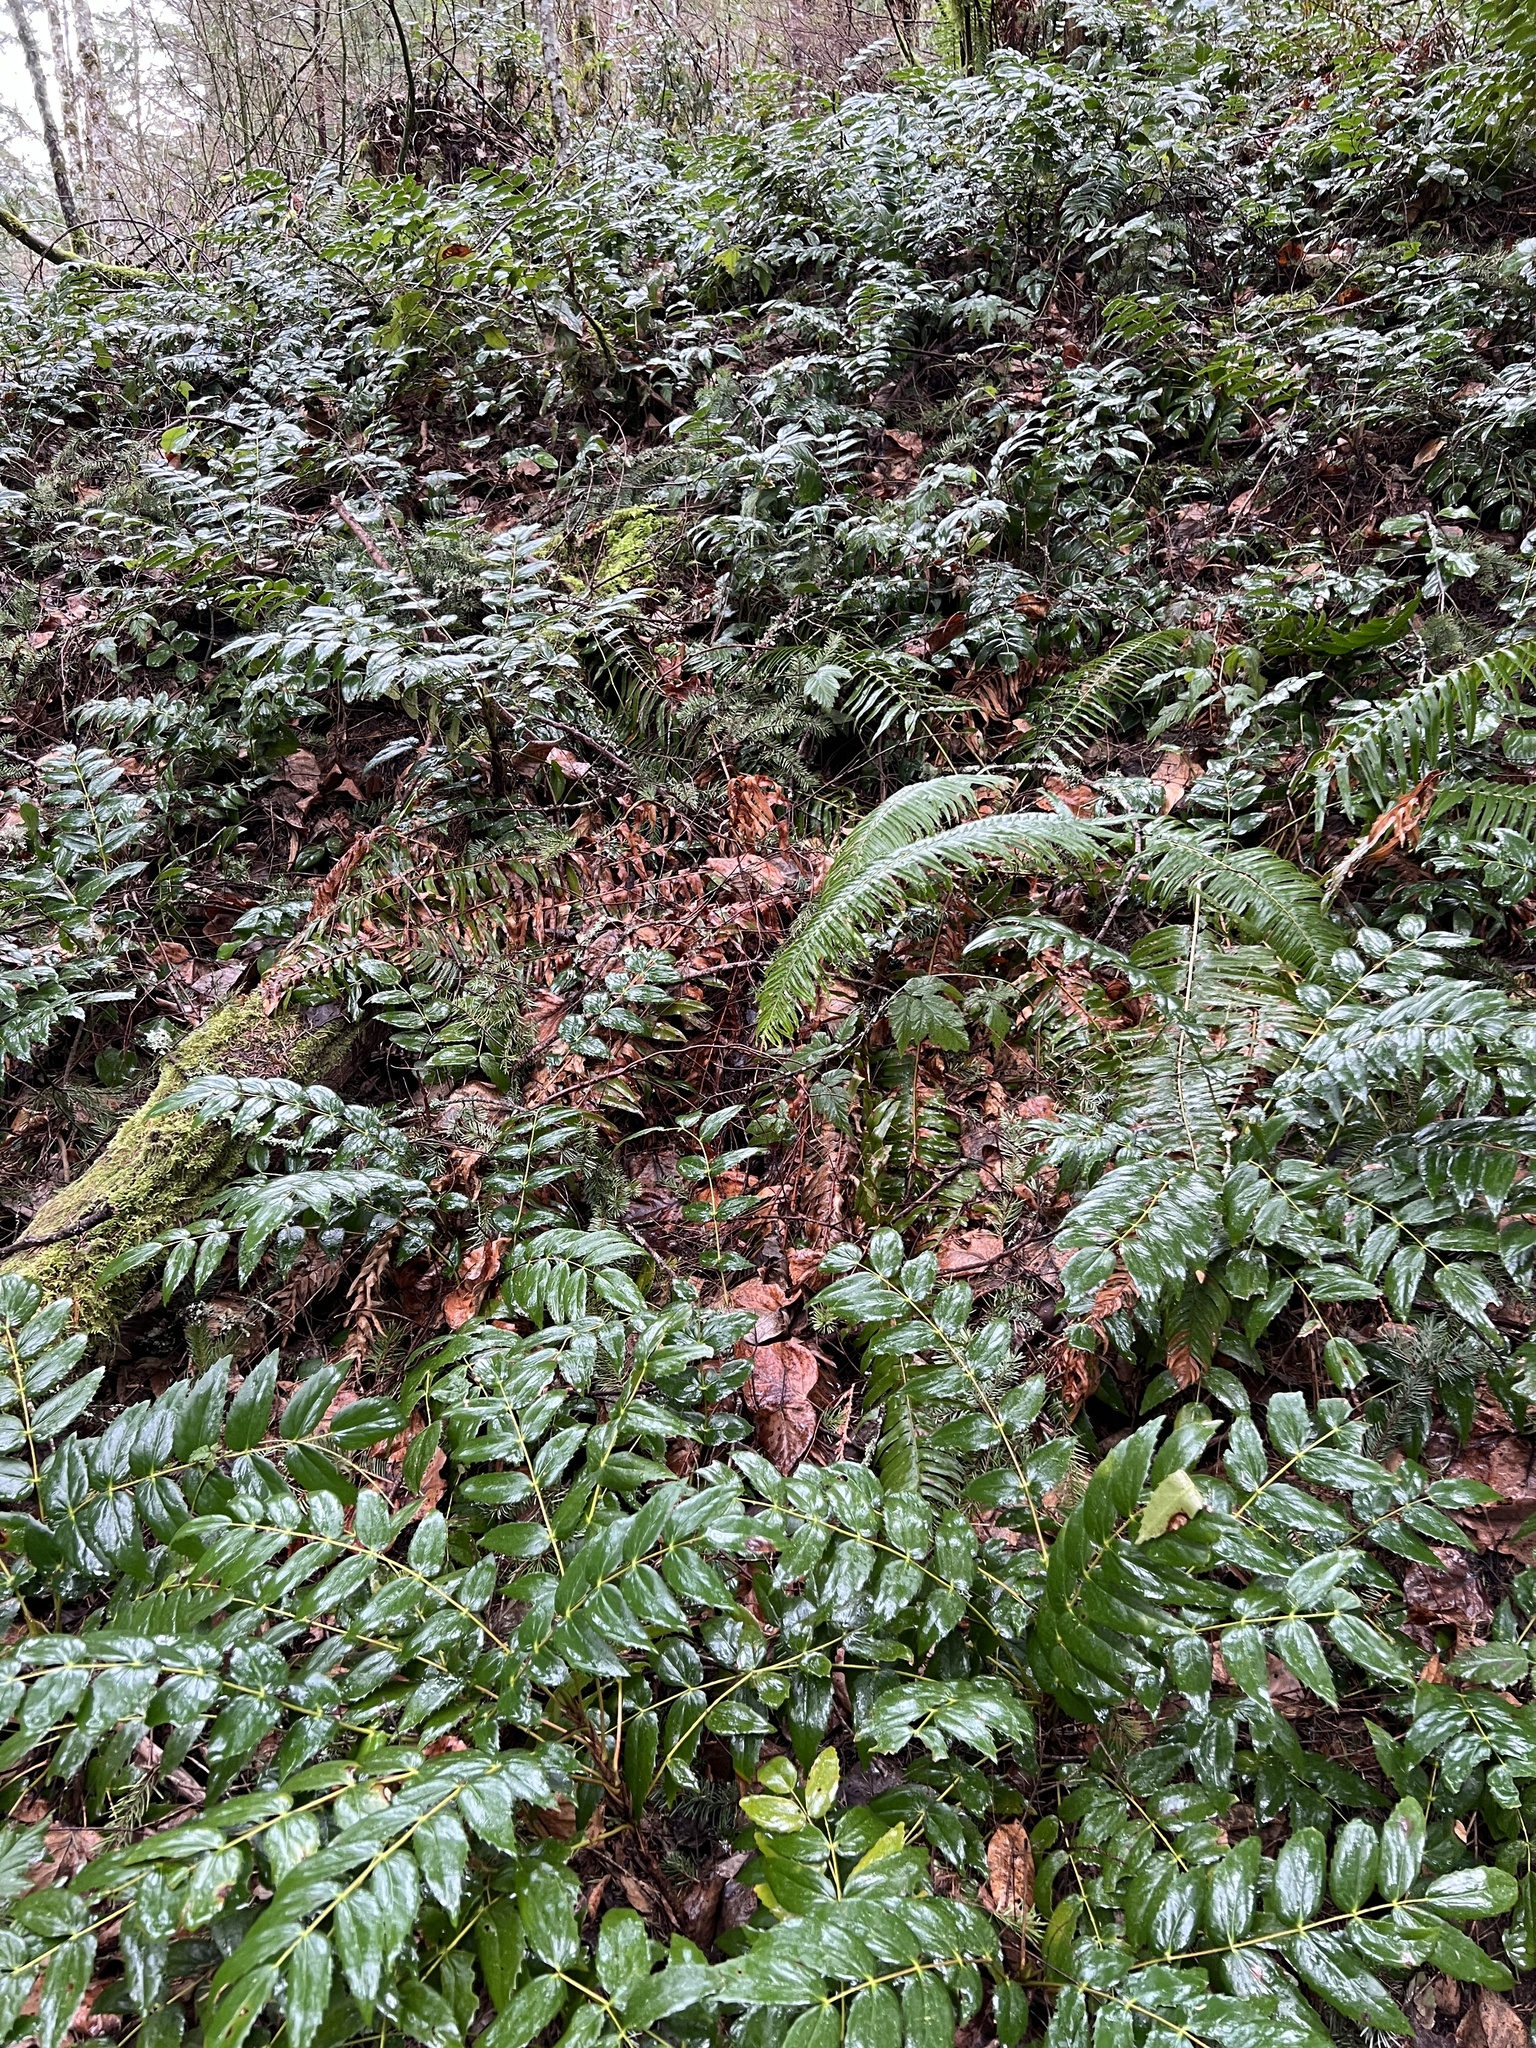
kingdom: Plantae
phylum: Tracheophyta
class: Magnoliopsida
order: Ranunculales
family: Berberidaceae
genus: Mahonia
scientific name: Mahonia nervosa
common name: Cascade oregon-grape
